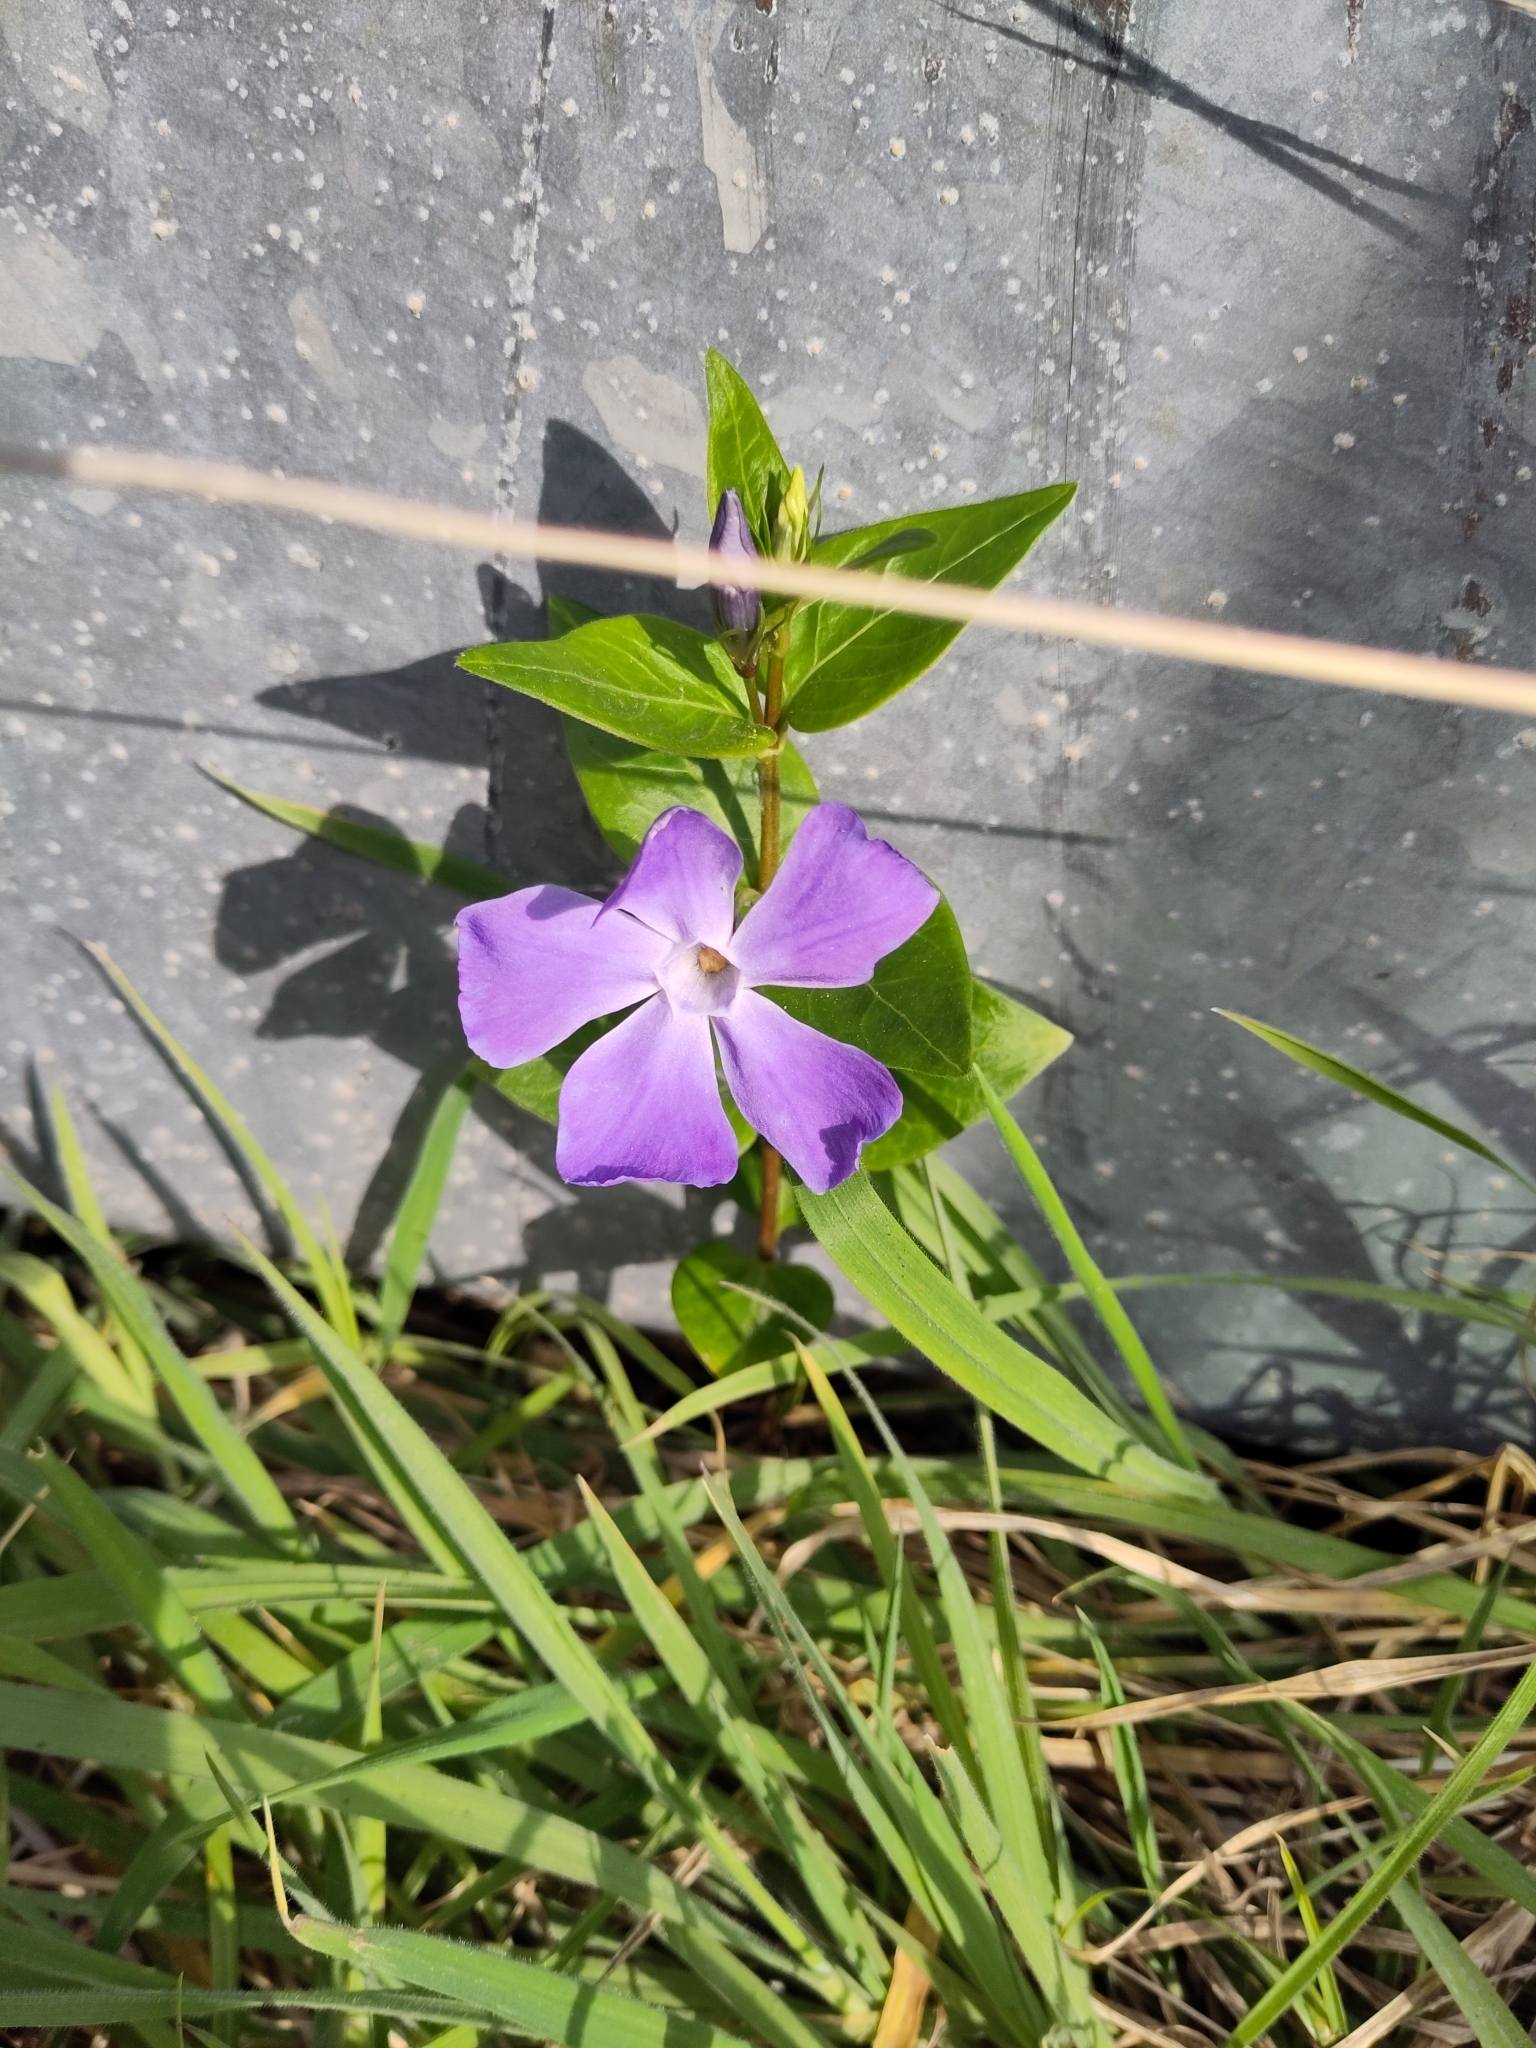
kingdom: Plantae
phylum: Tracheophyta
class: Magnoliopsida
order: Gentianales
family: Apocynaceae
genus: Vinca
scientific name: Vinca major
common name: Greater periwinkle
